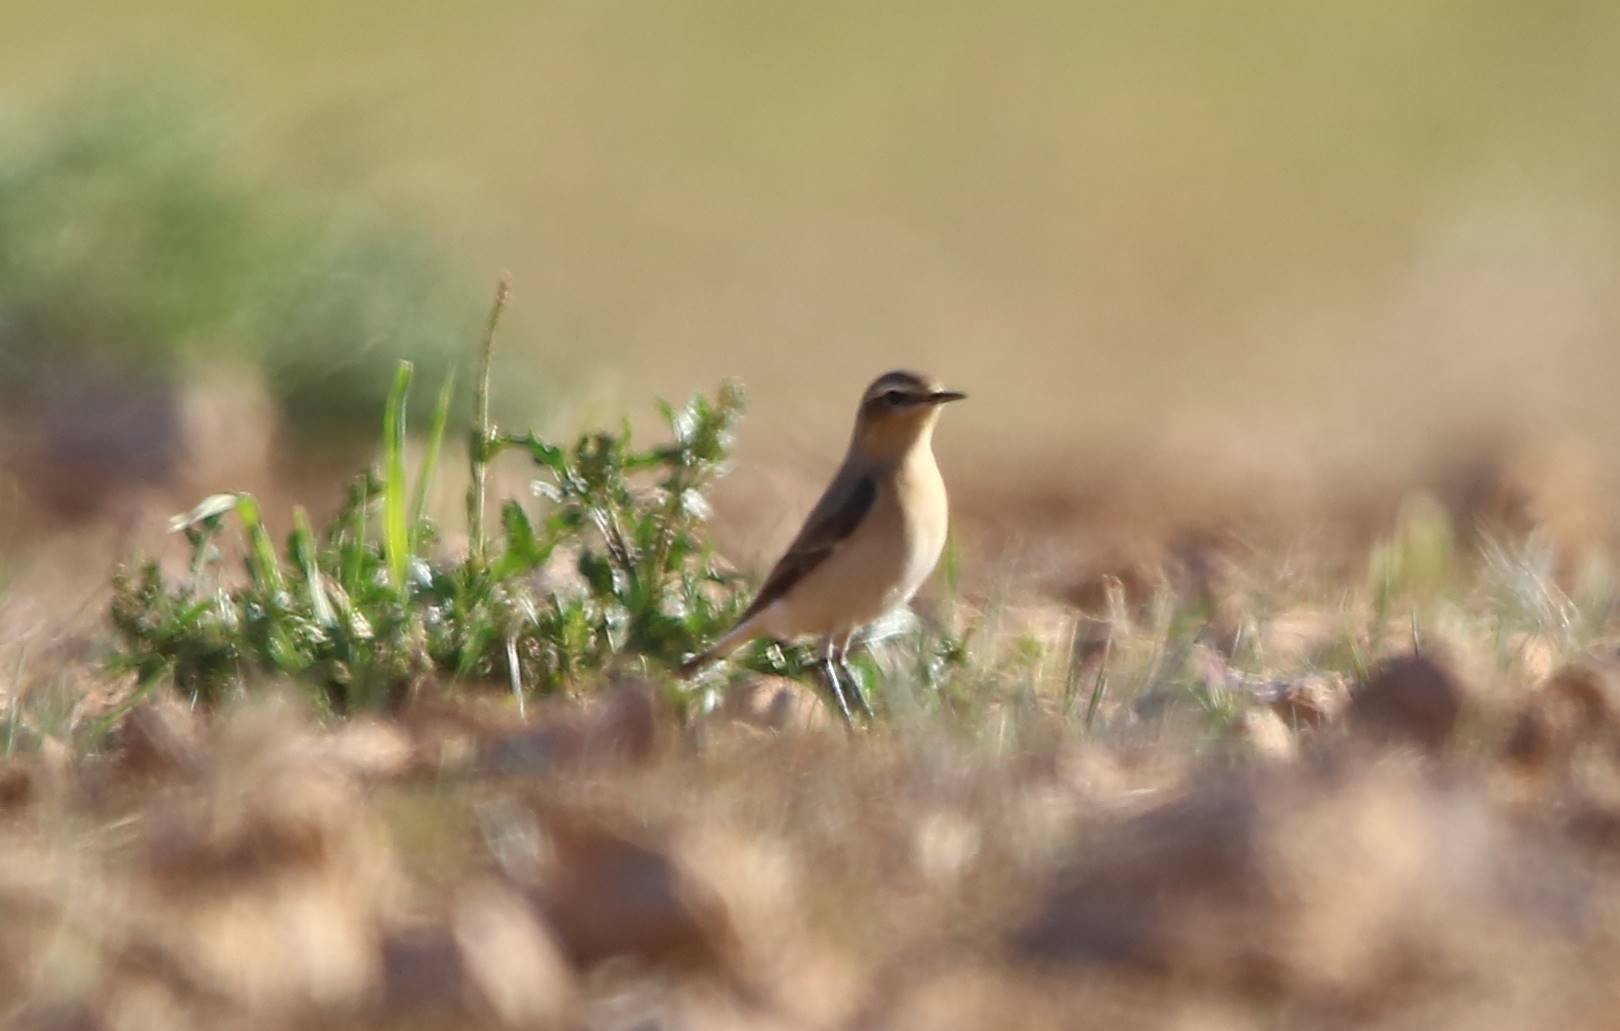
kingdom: Animalia
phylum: Chordata
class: Aves
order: Passeriformes
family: Muscicapidae
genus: Oenanthe
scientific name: Oenanthe oenanthe
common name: Northern wheatear
